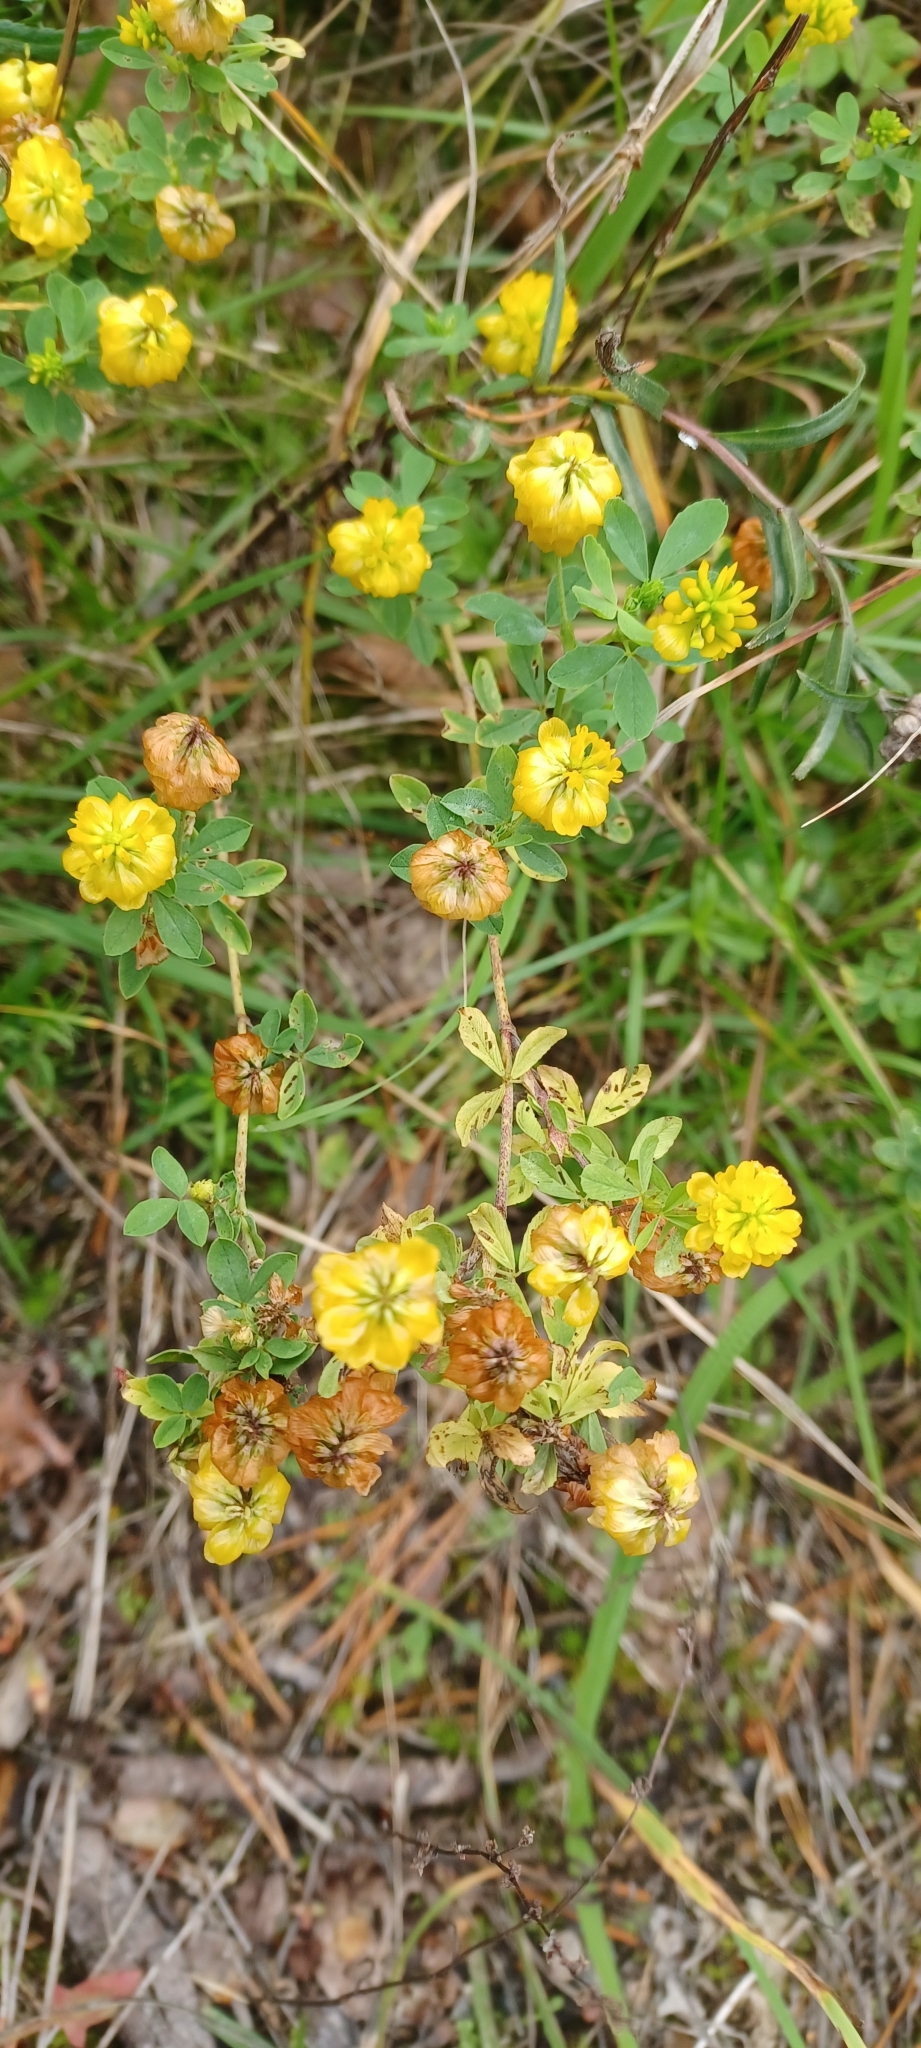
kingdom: Plantae
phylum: Tracheophyta
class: Magnoliopsida
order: Fabales
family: Fabaceae
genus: Trifolium
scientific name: Trifolium aureum
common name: Golden clover
